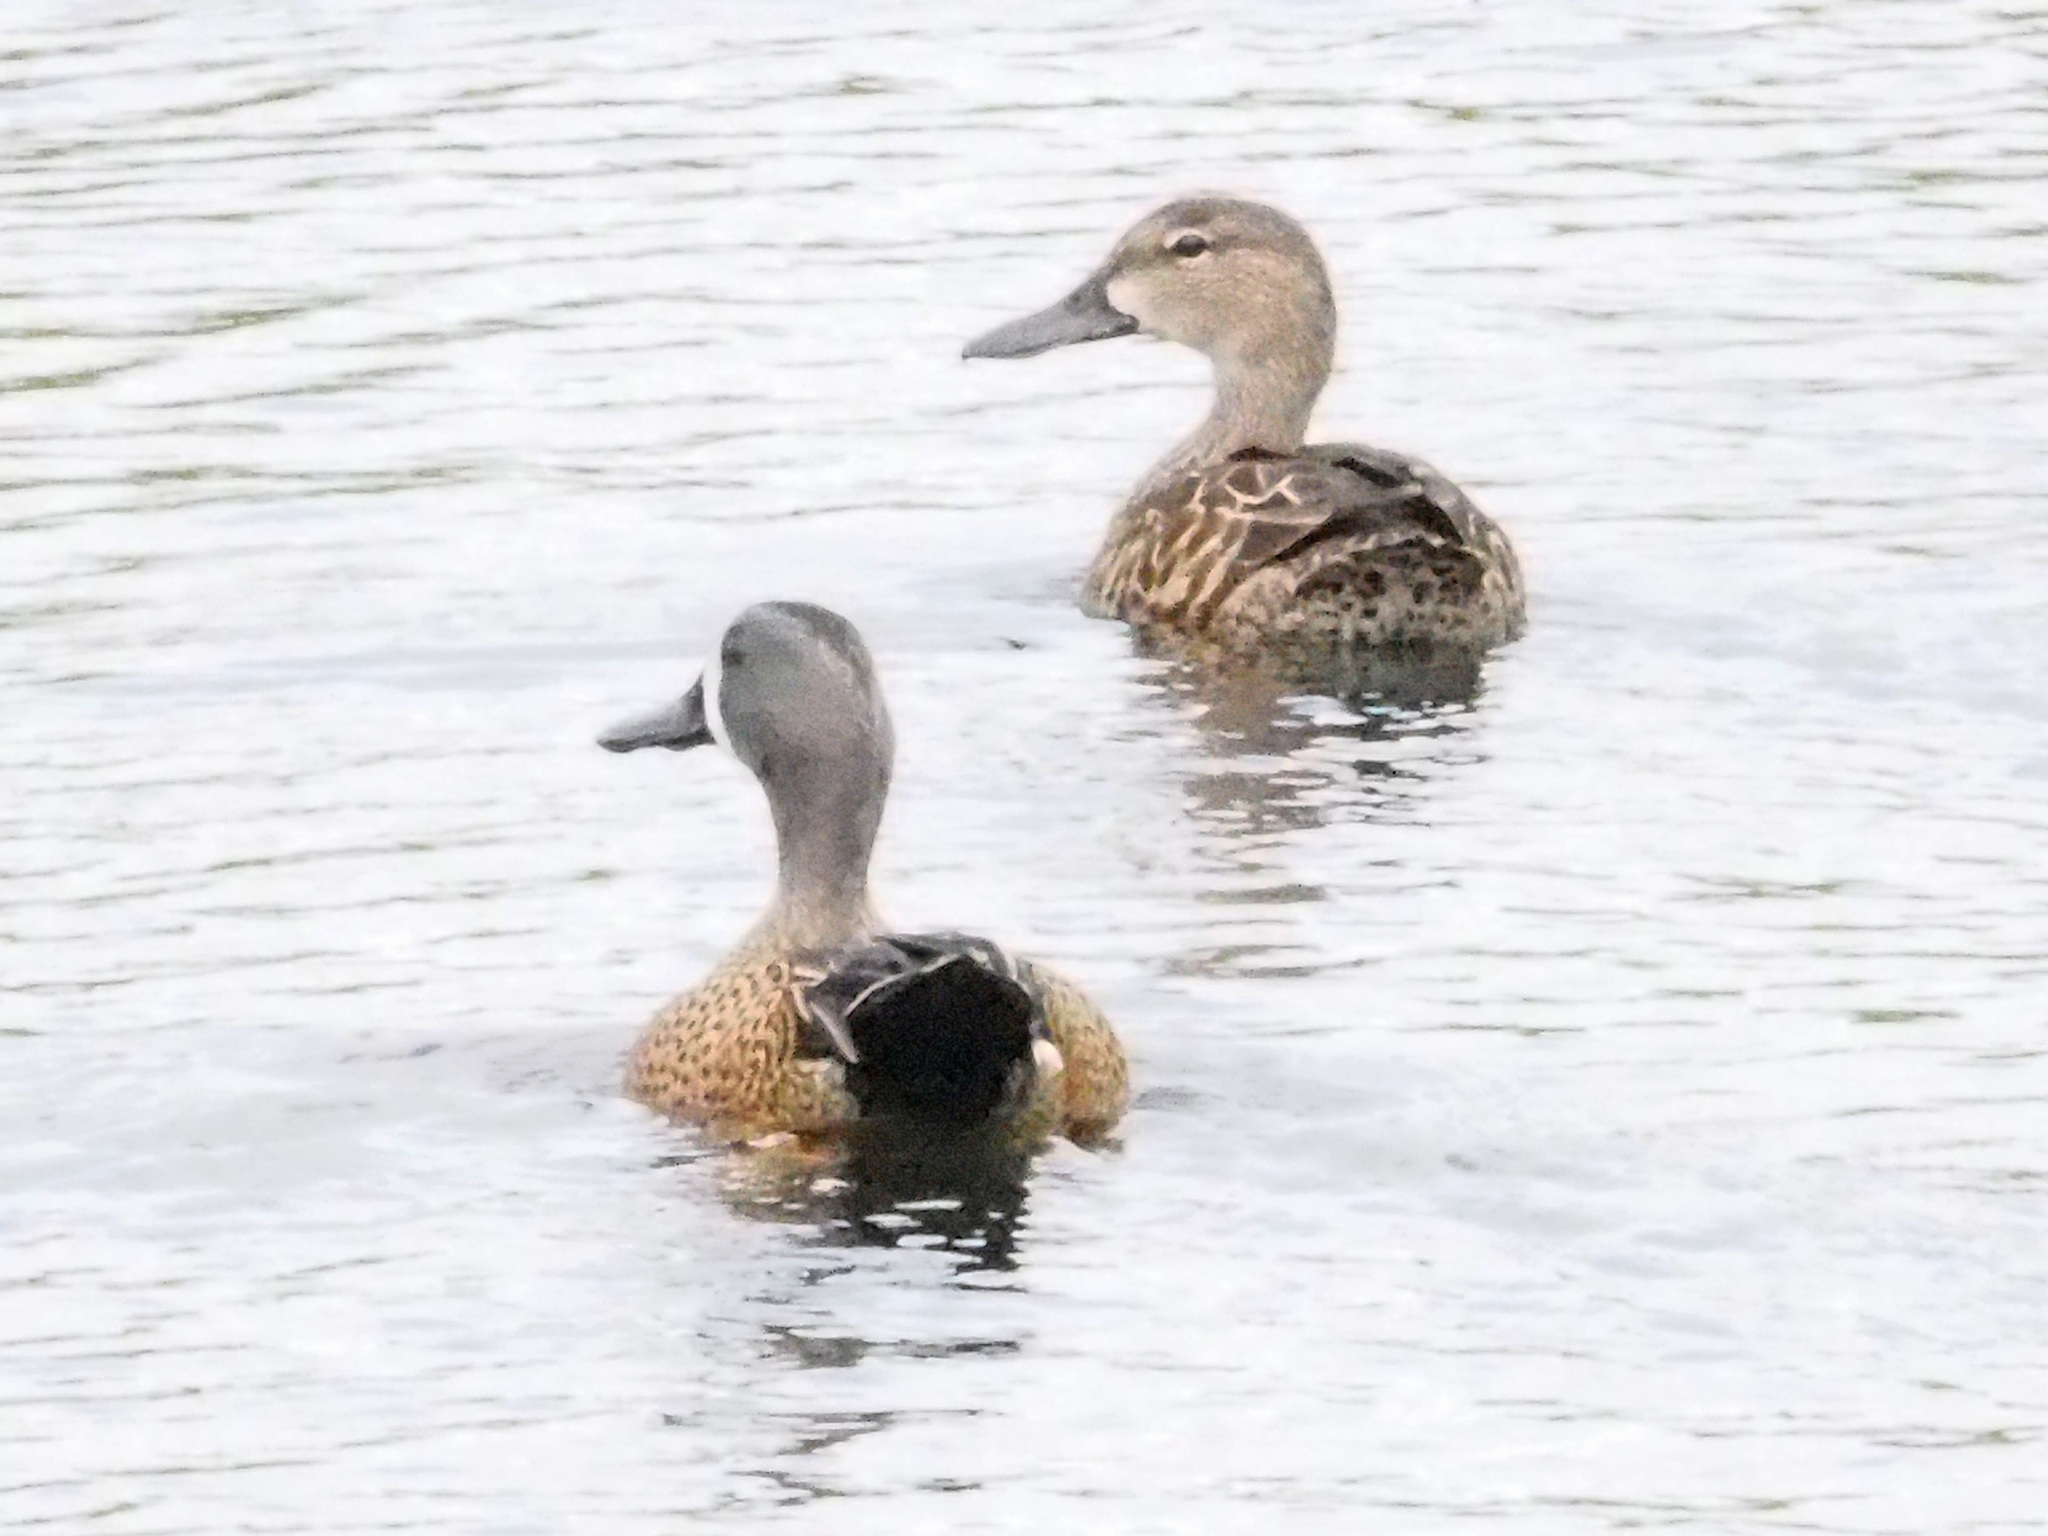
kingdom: Animalia
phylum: Chordata
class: Aves
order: Anseriformes
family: Anatidae
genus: Spatula
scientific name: Spatula discors
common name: Blue-winged teal
